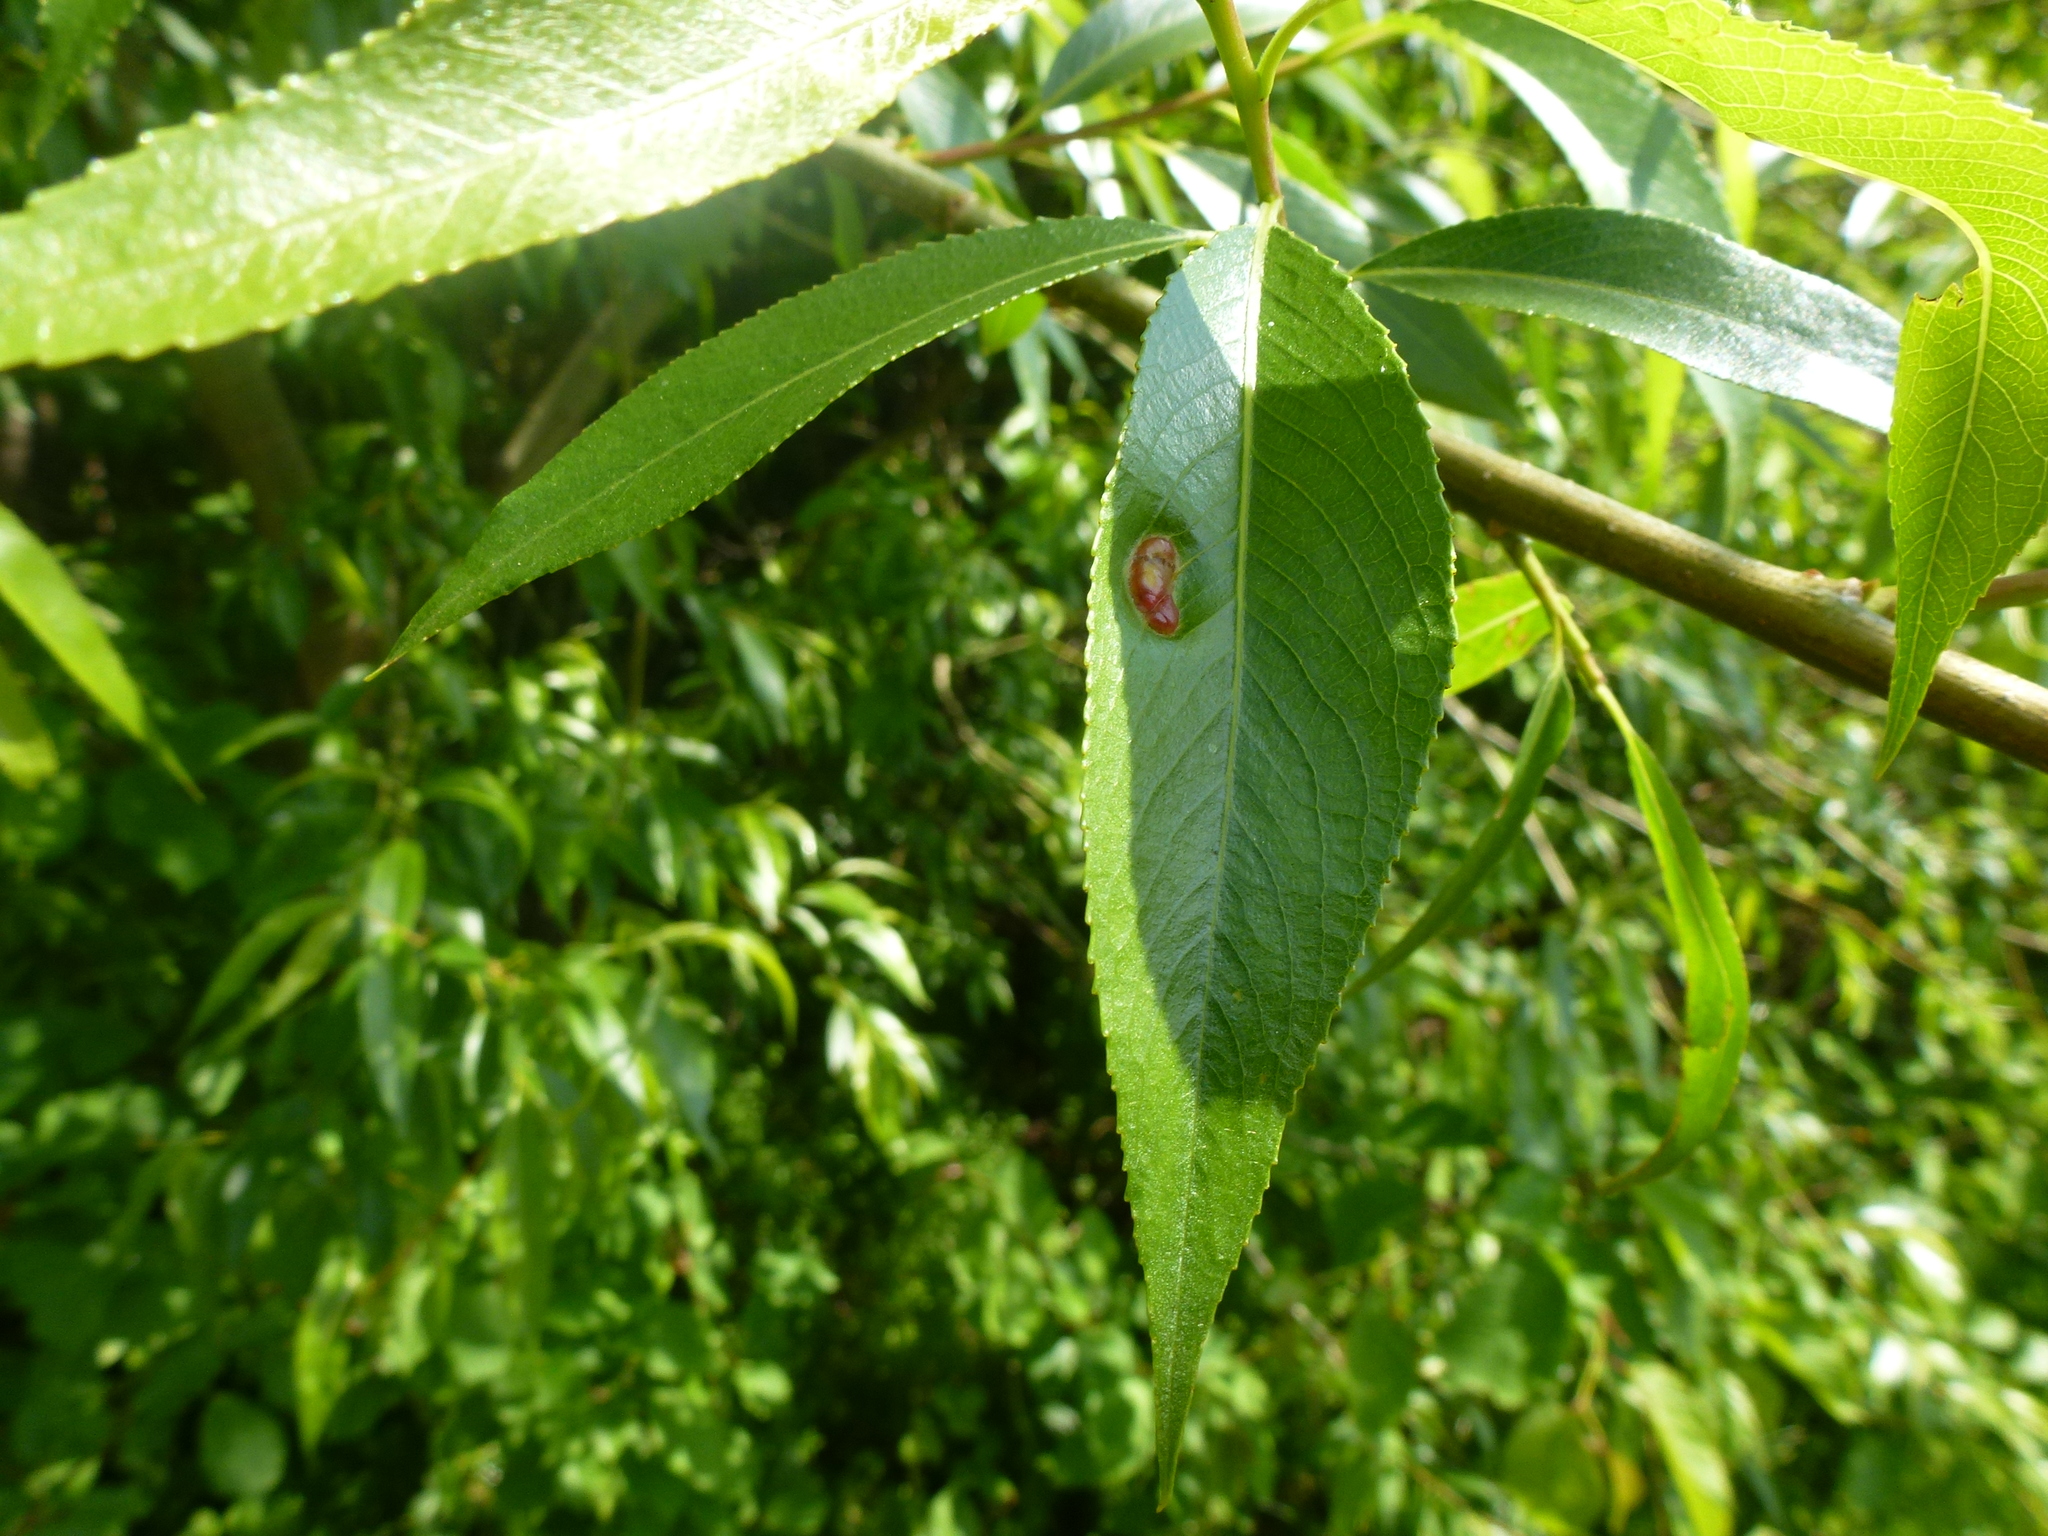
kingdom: Animalia
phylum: Arthropoda
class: Insecta
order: Hymenoptera
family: Tenthredinidae
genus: Pontania
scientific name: Pontania proxima
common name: Common sawfly
